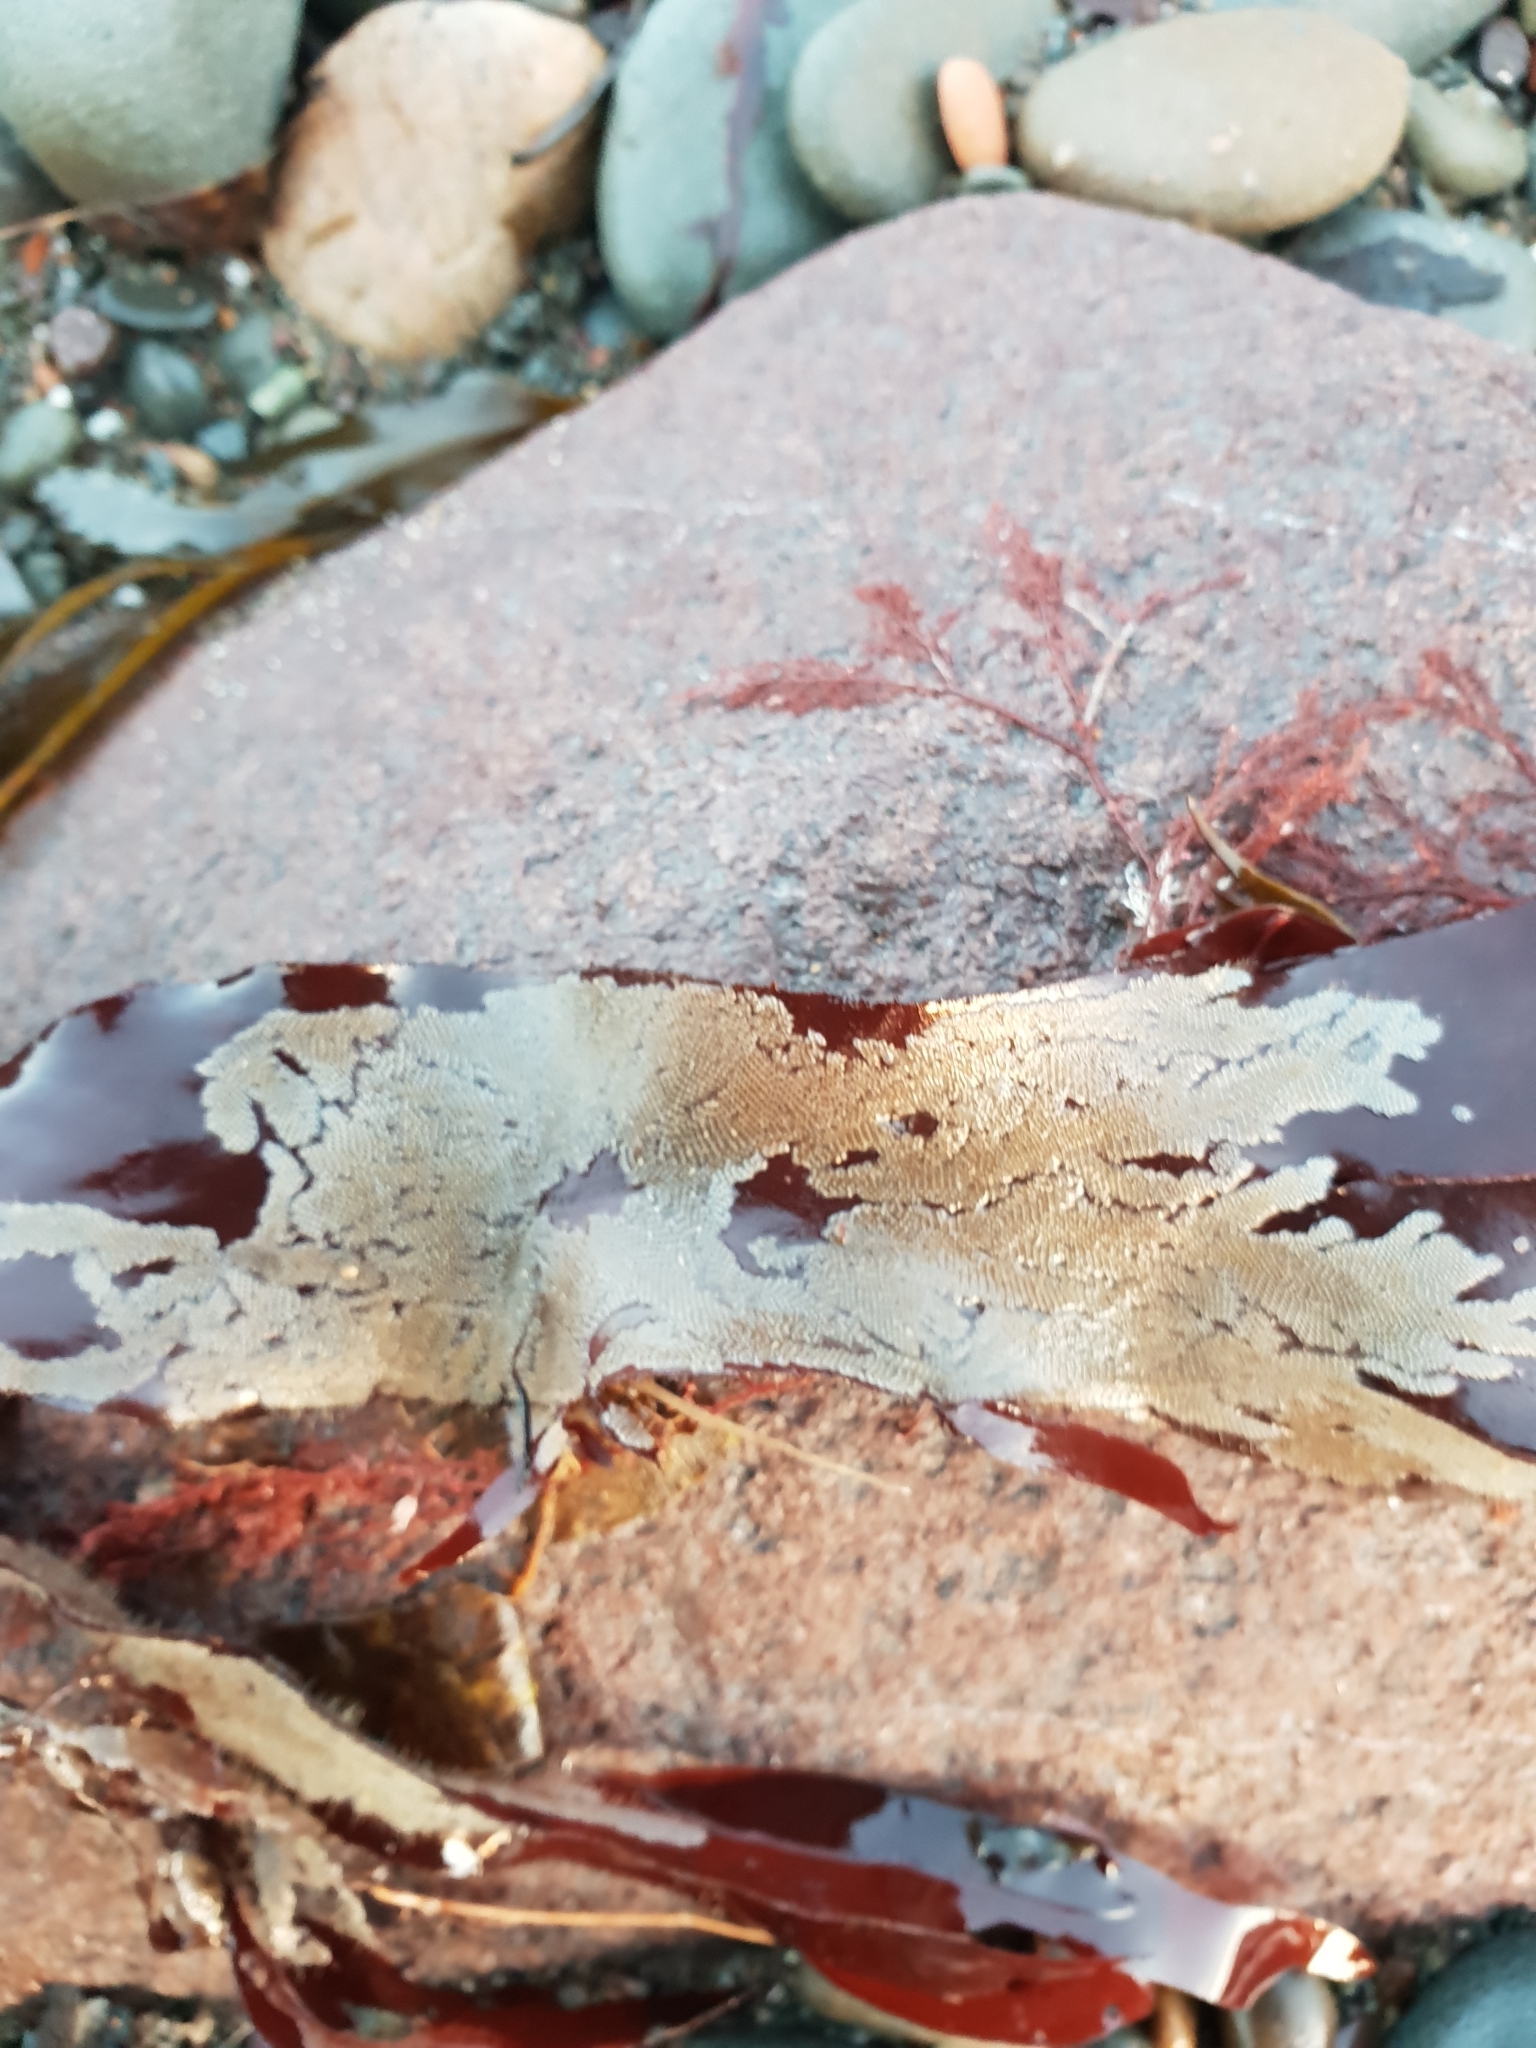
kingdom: Animalia
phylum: Bryozoa
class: Gymnolaemata
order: Cheilostomatida
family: Electridae
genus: Electra
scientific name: Electra pilosa
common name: Hairy sea-mat
